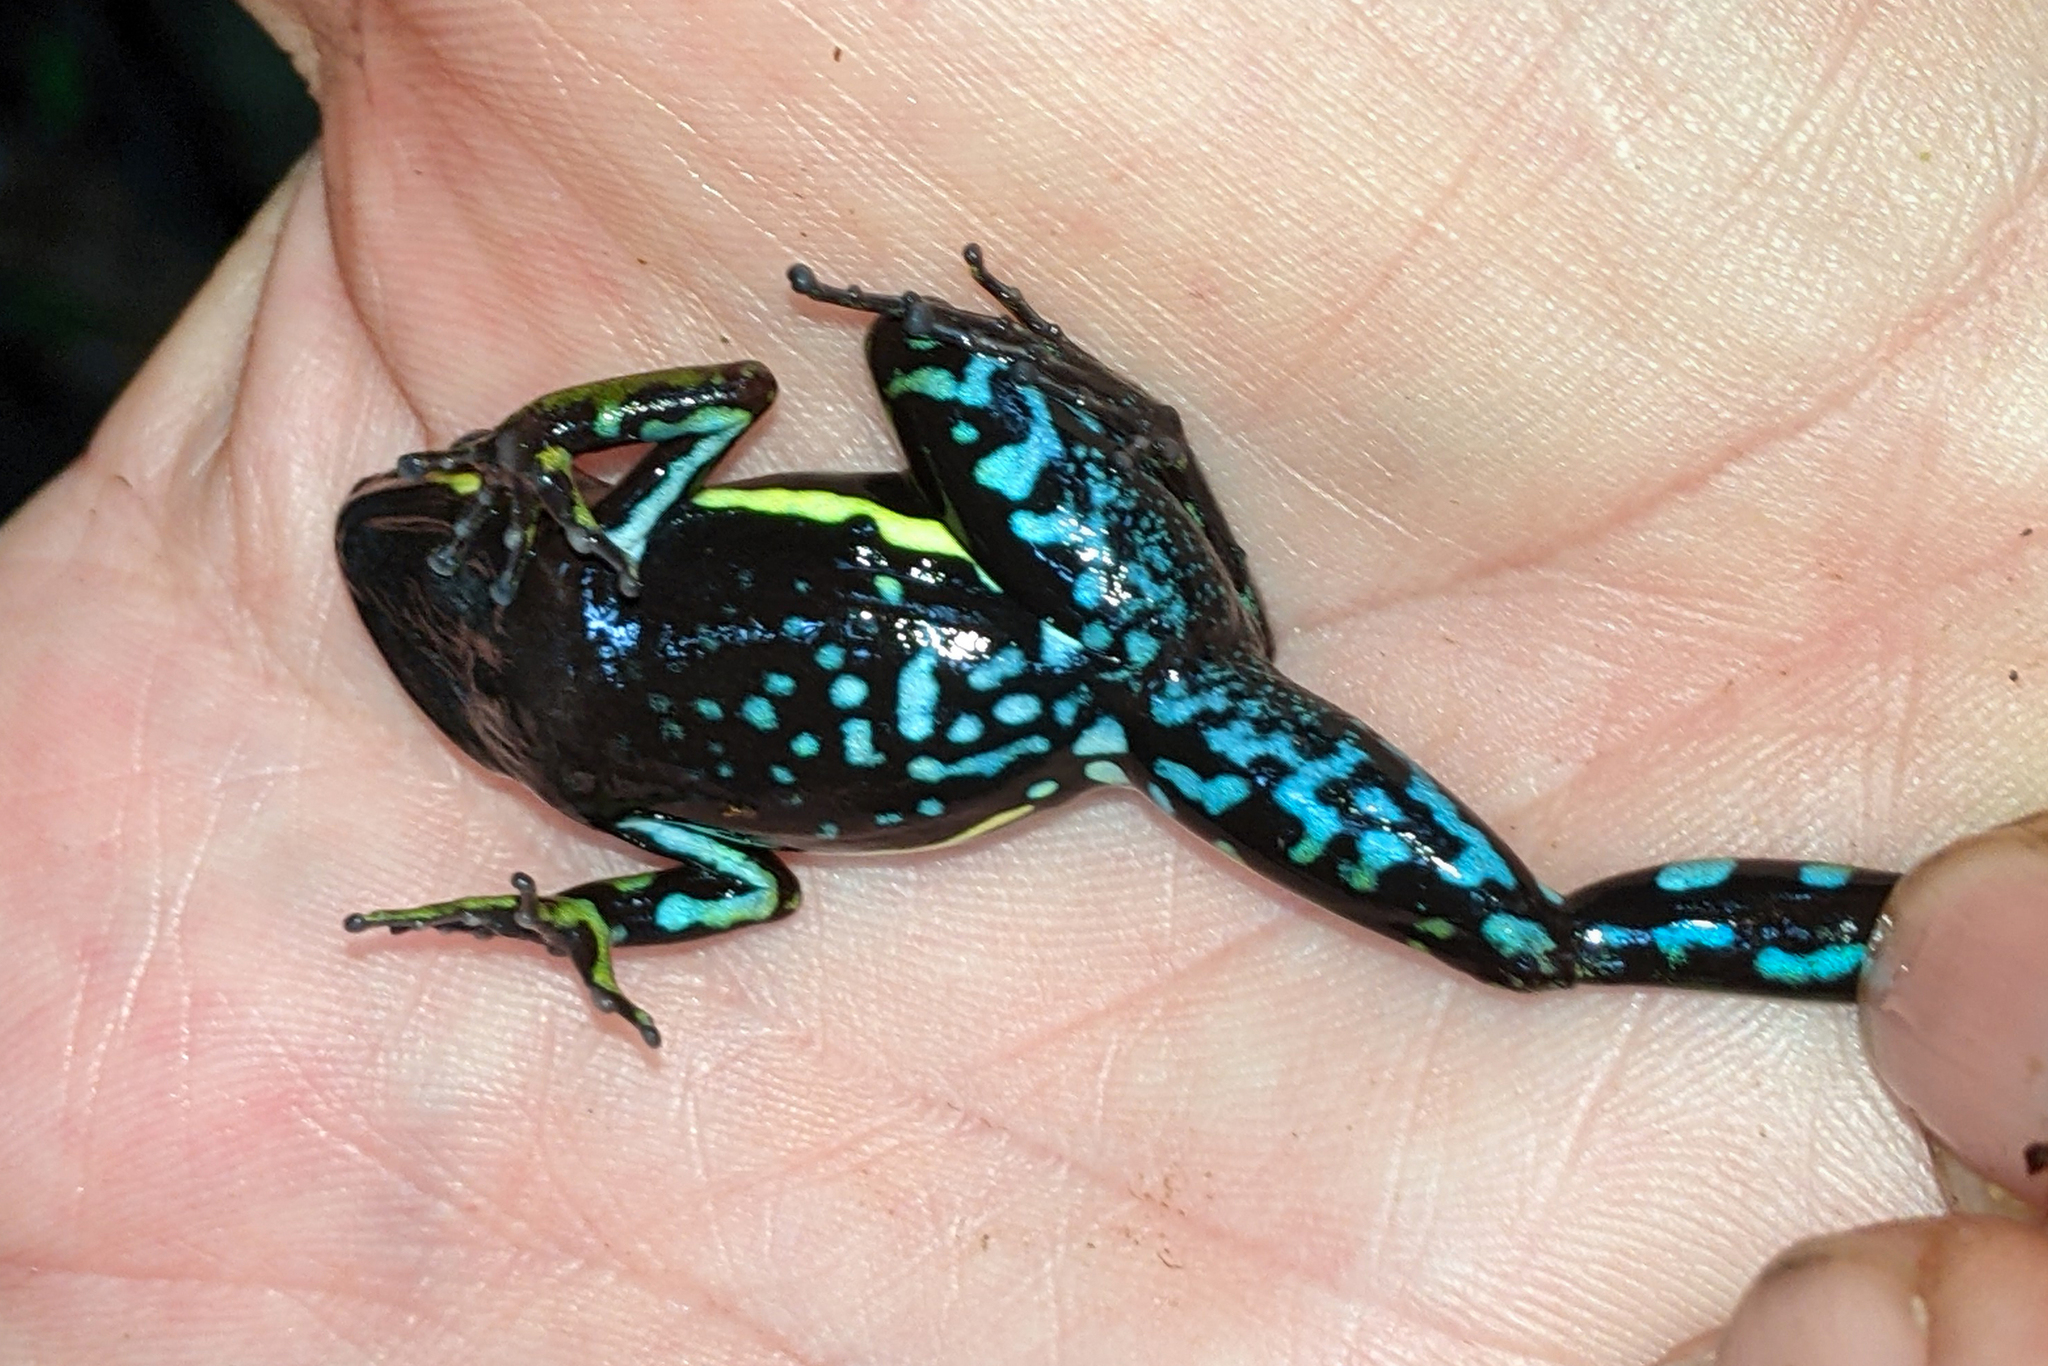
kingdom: Animalia
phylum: Chordata
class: Amphibia
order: Anura
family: Dendrobatidae
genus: Ameerega
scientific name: Ameerega trivittata
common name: Three-striped arrow-poison frog
